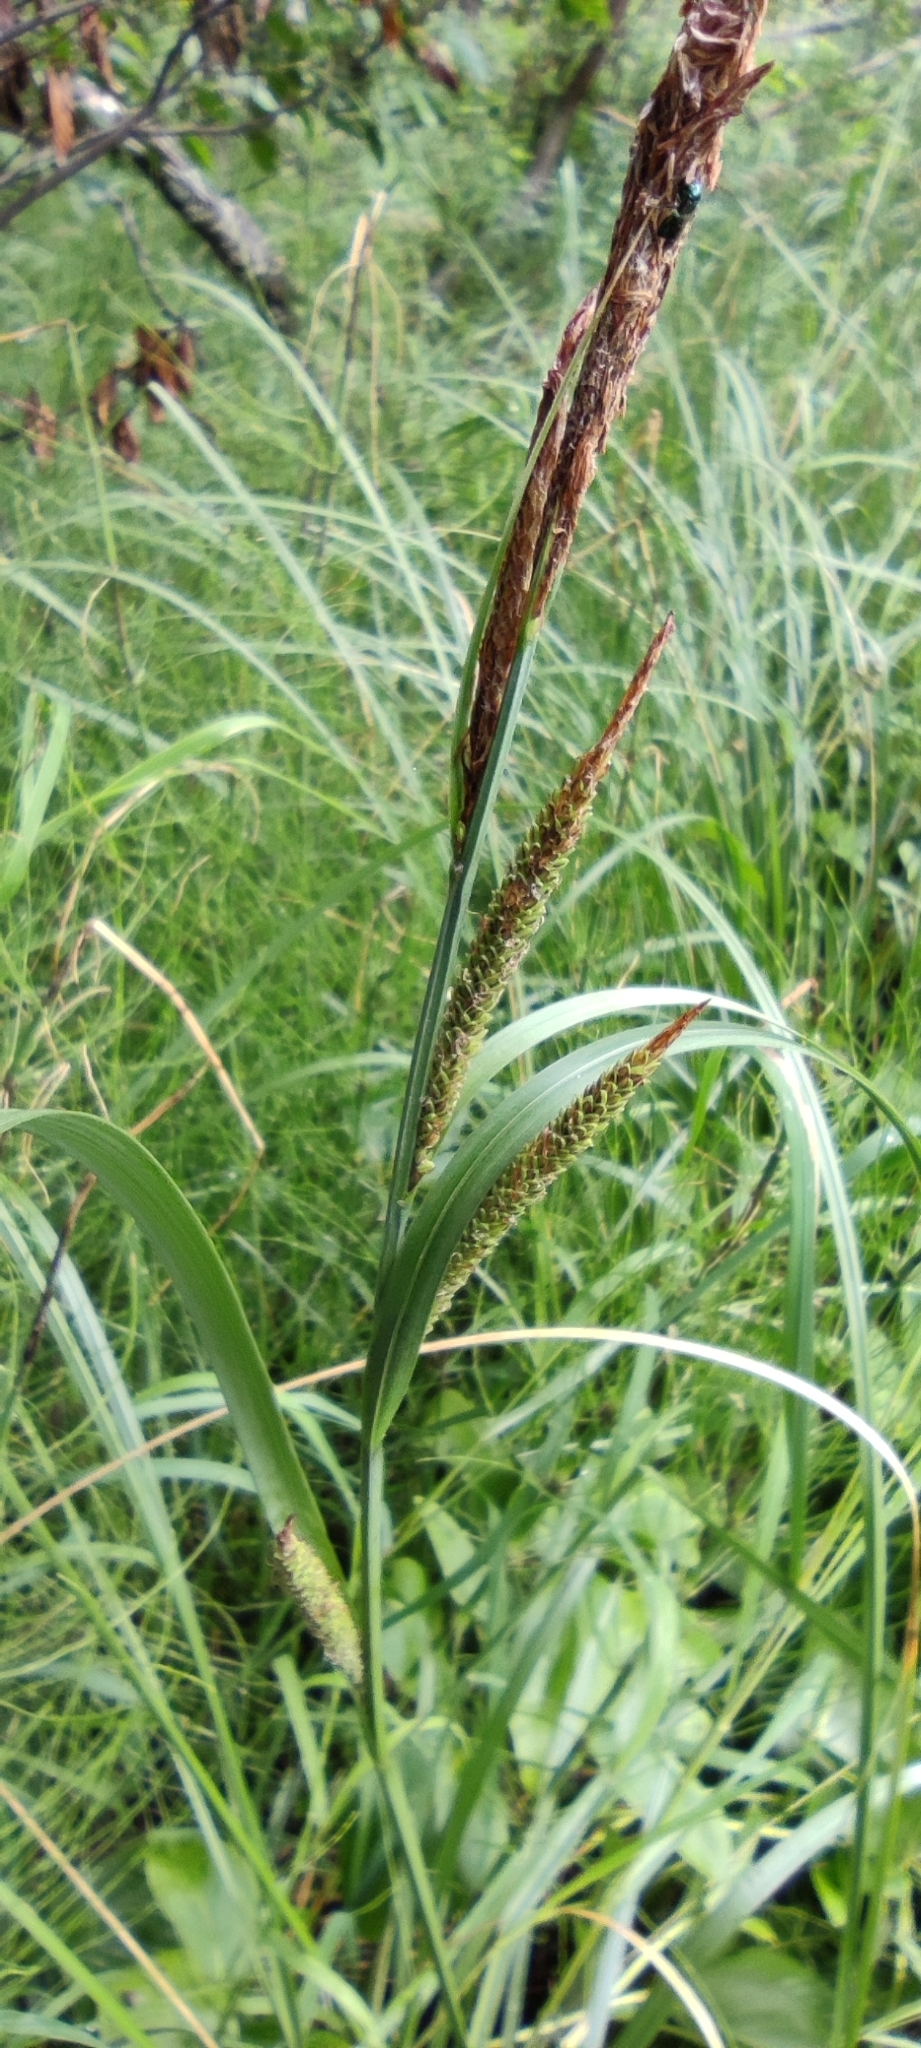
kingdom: Plantae
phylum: Tracheophyta
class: Liliopsida
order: Poales
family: Cyperaceae
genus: Carex
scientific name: Carex aquatilis
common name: Water sedge
